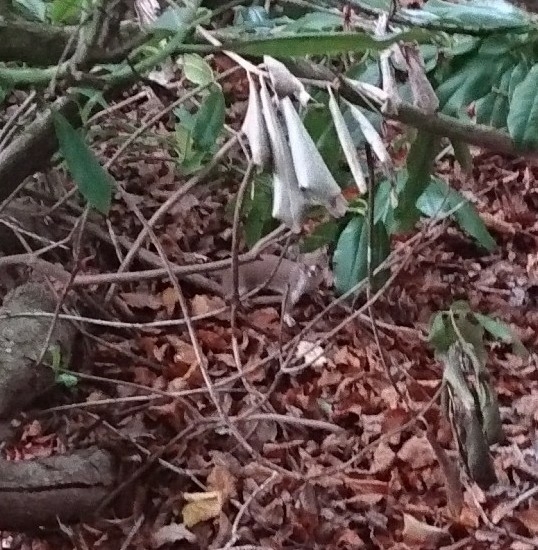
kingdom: Animalia
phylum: Chordata
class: Mammalia
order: Carnivora
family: Mustelidae
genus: Mustela
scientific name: Mustela nivalis
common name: Least weasel
